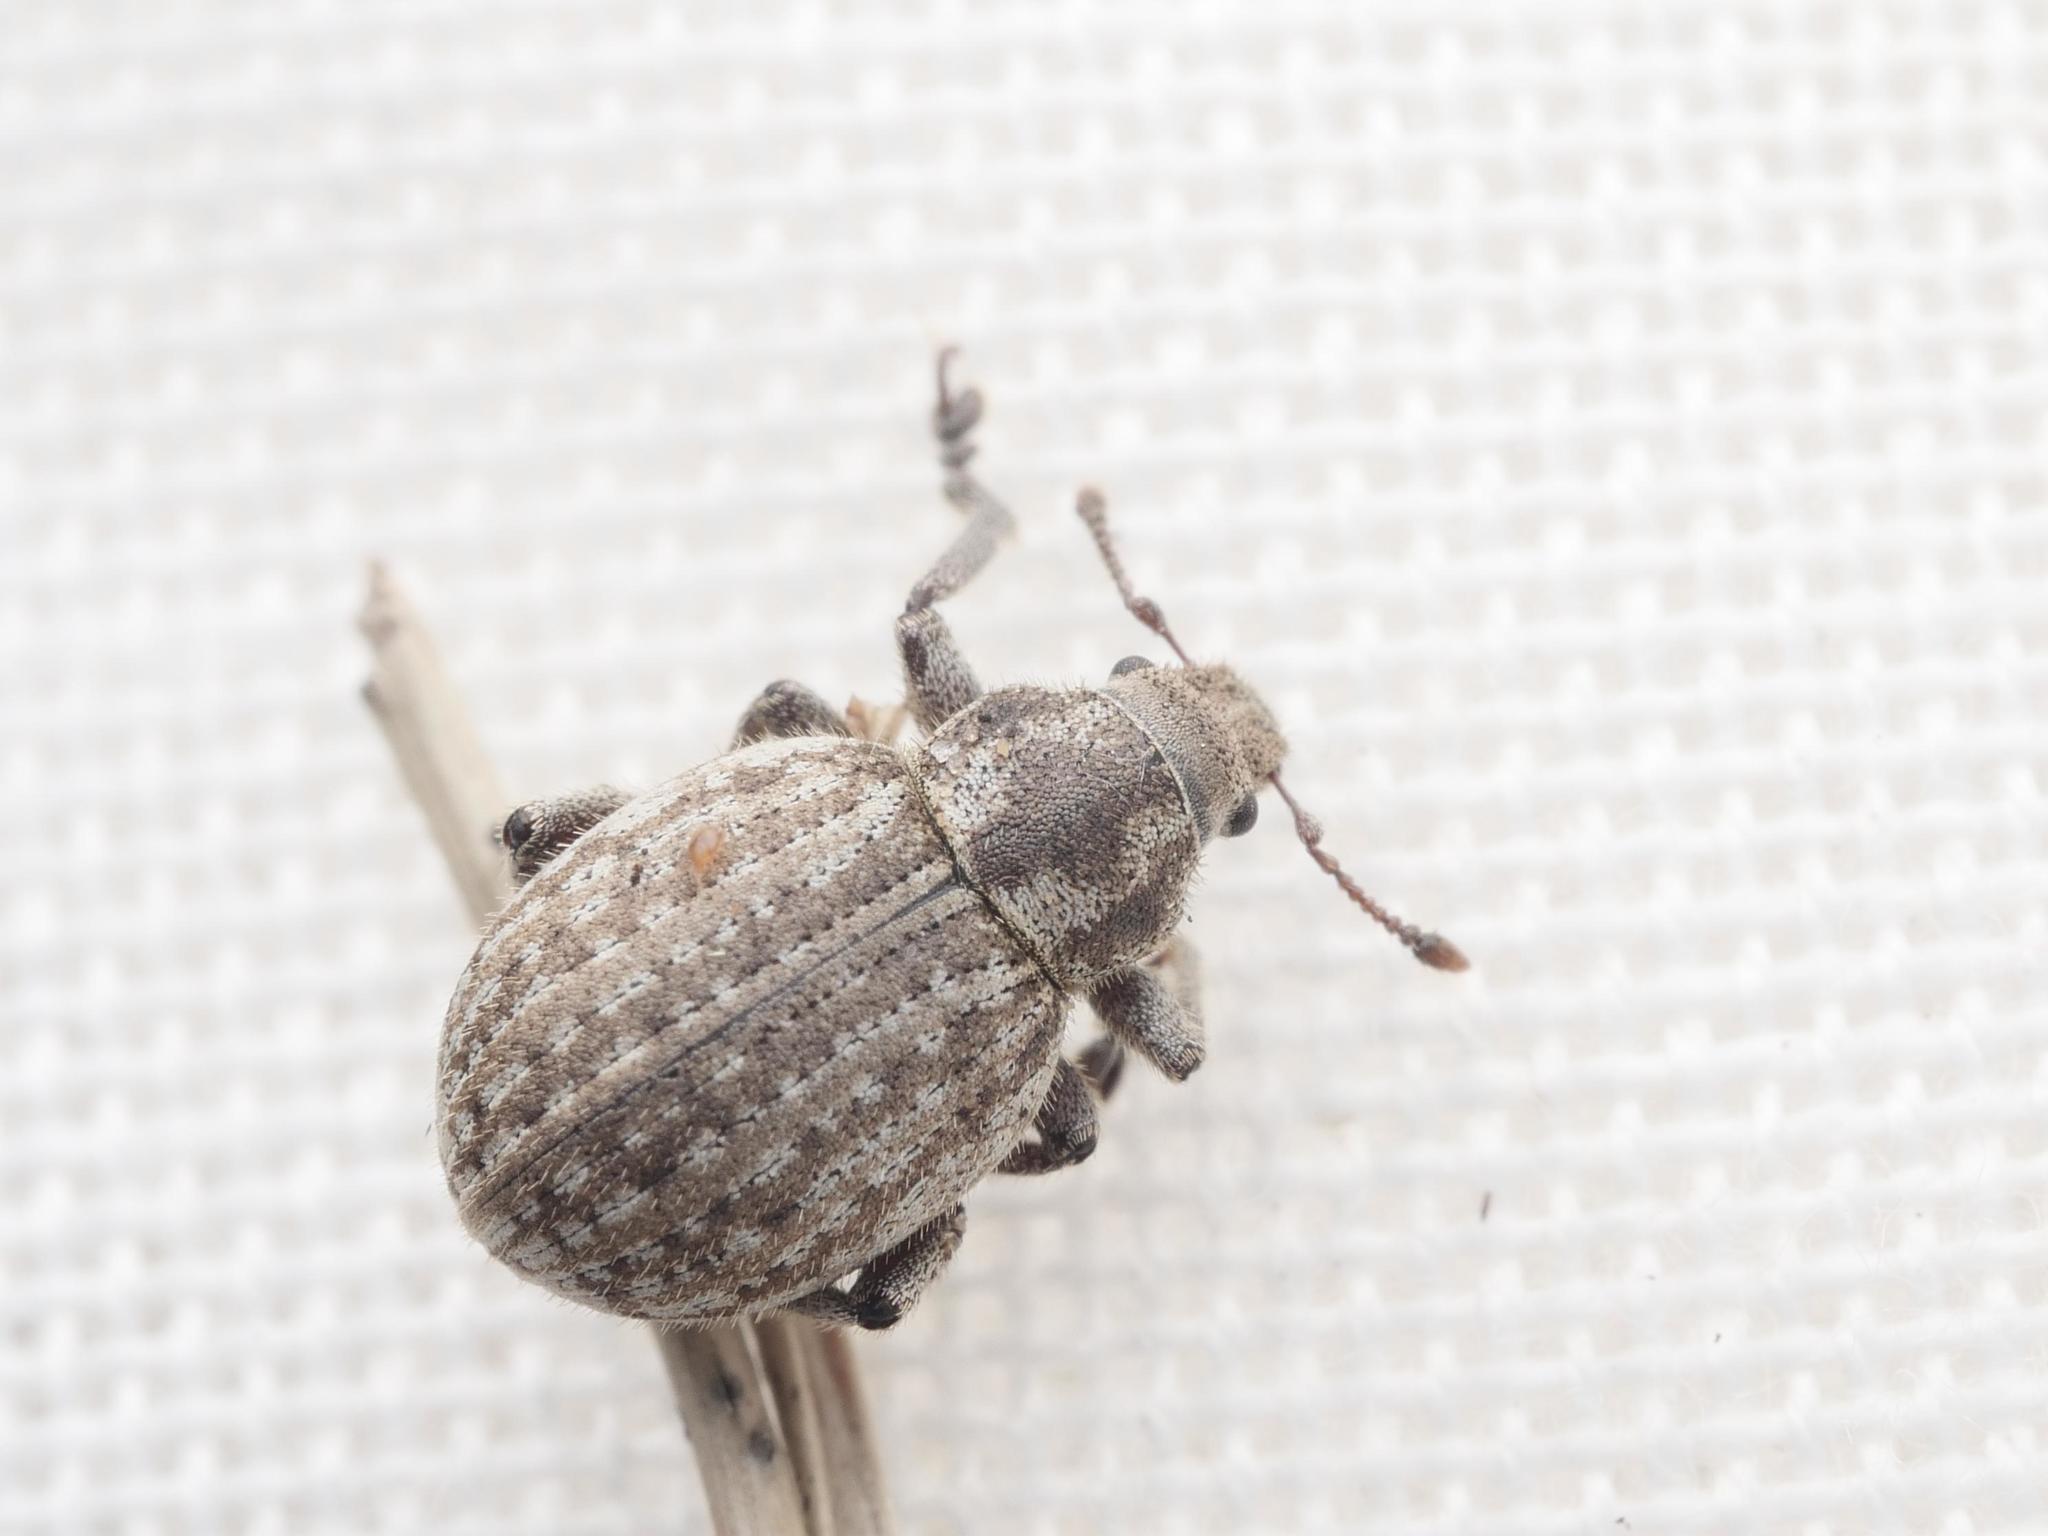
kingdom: Animalia
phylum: Arthropoda
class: Insecta
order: Coleoptera
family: Curculionidae
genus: Philopedon
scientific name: Philopedon plagiatum
